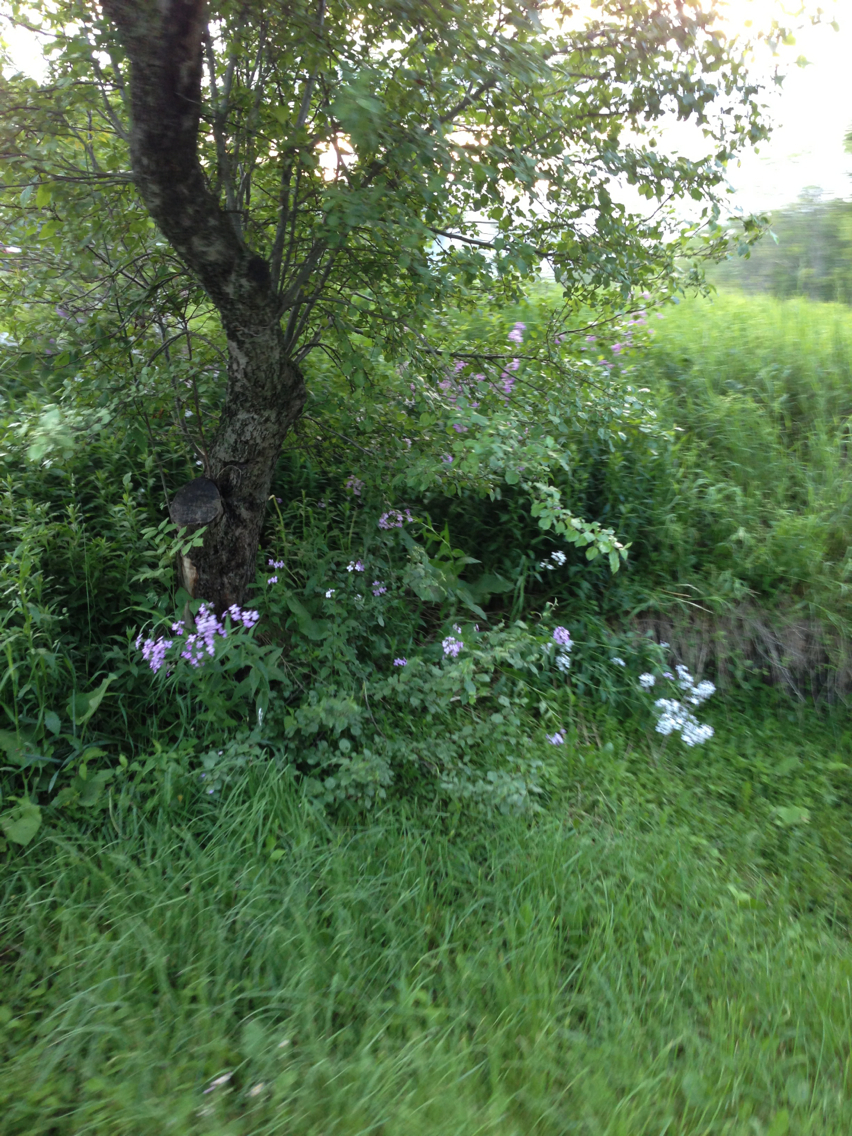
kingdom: Plantae
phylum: Tracheophyta
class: Magnoliopsida
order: Brassicales
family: Brassicaceae
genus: Hesperis
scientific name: Hesperis matronalis
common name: Dame's-violet
